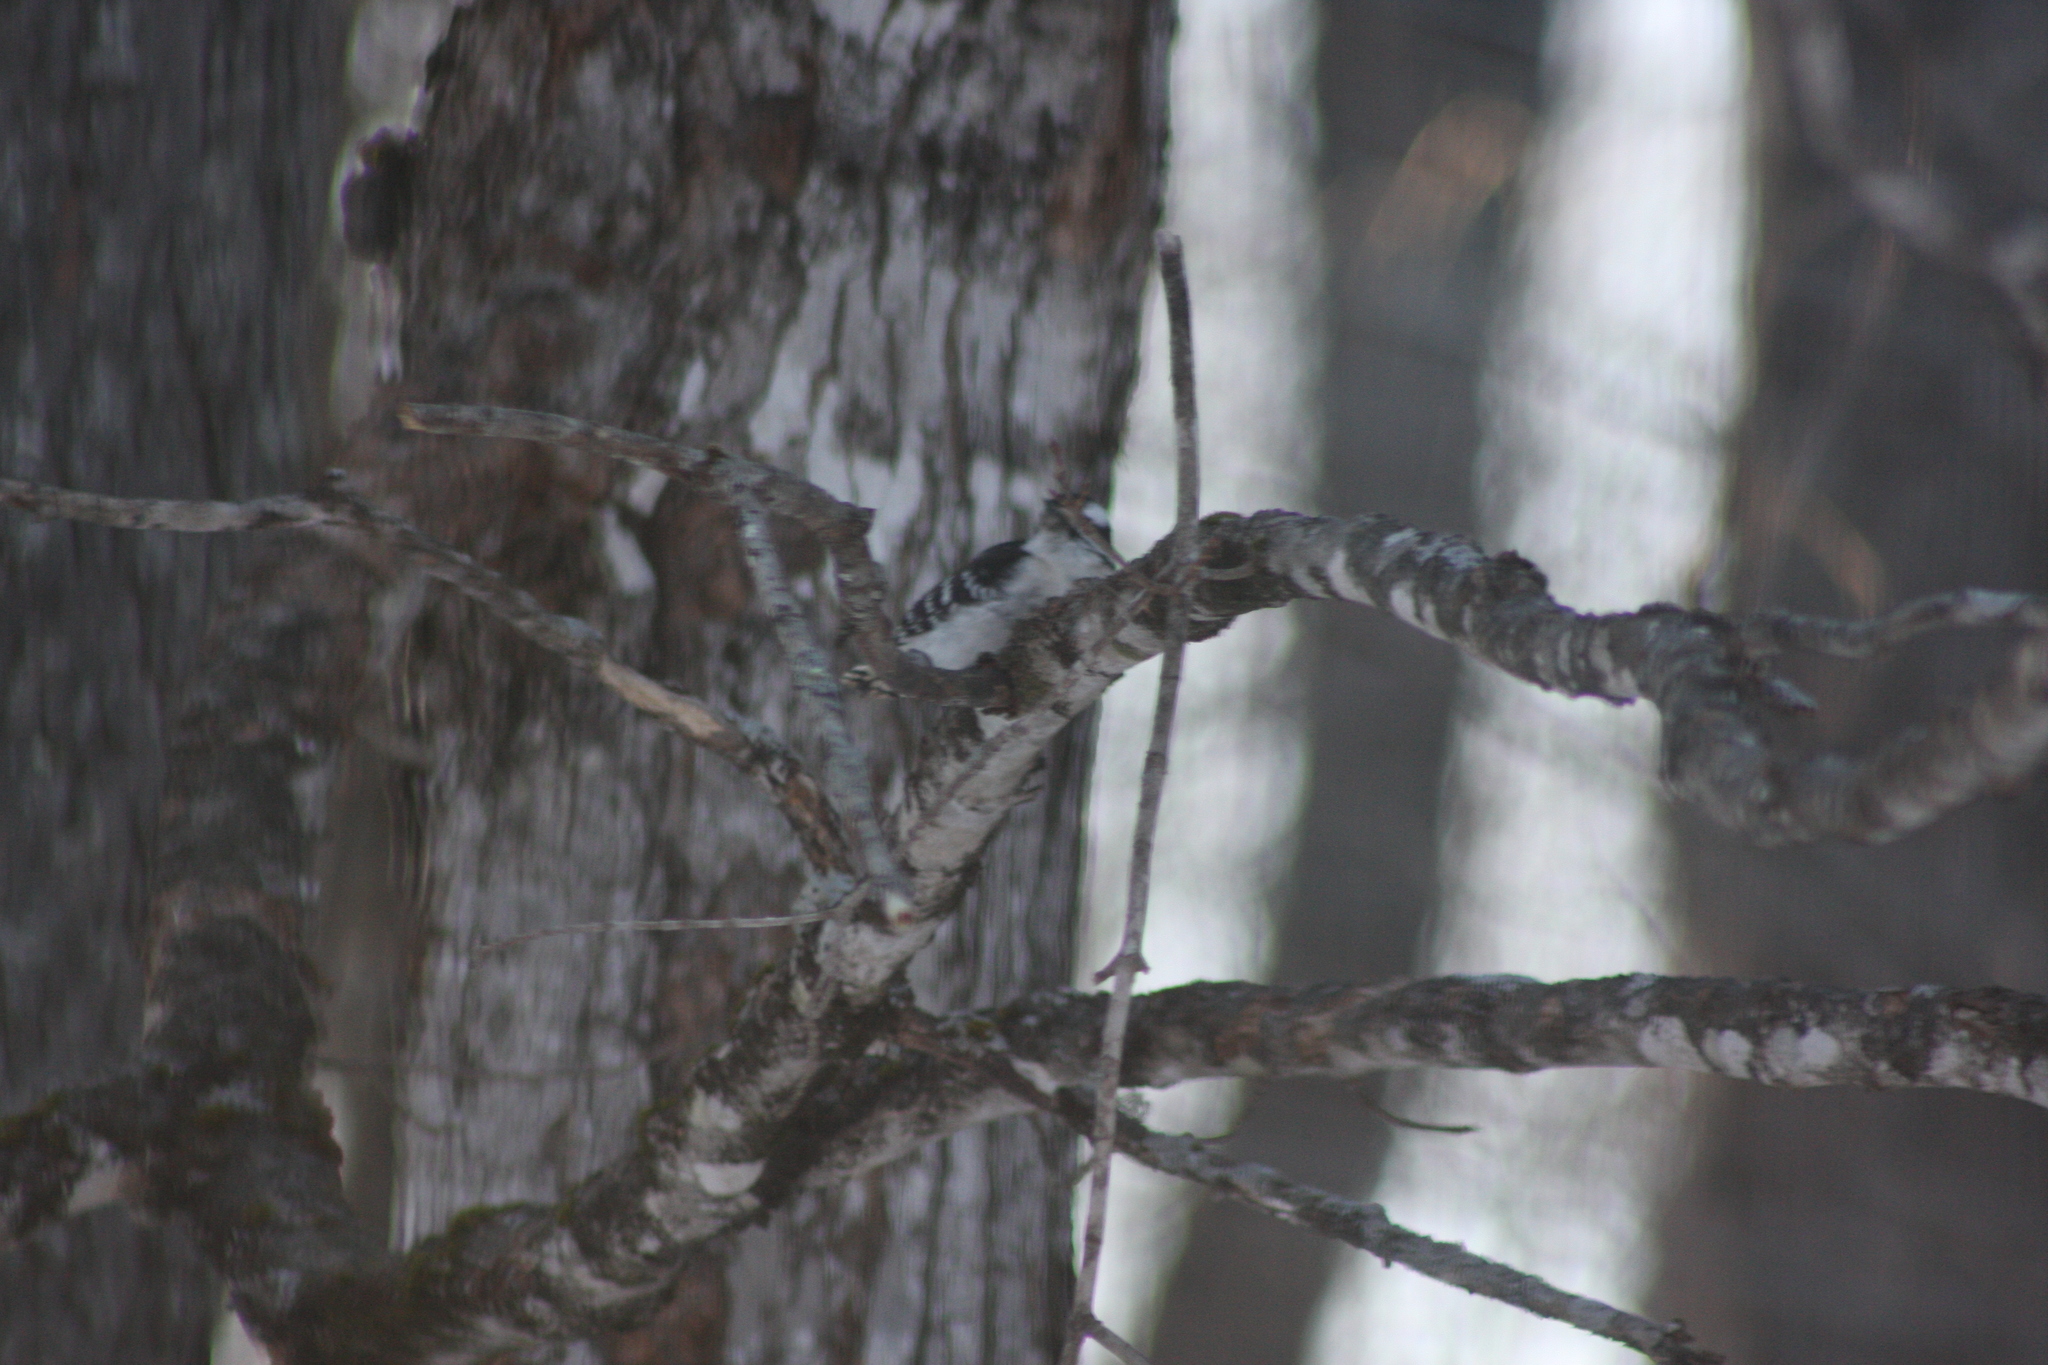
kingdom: Animalia
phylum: Chordata
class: Aves
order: Piciformes
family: Picidae
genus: Dryobates
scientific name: Dryobates pubescens
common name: Downy woodpecker
